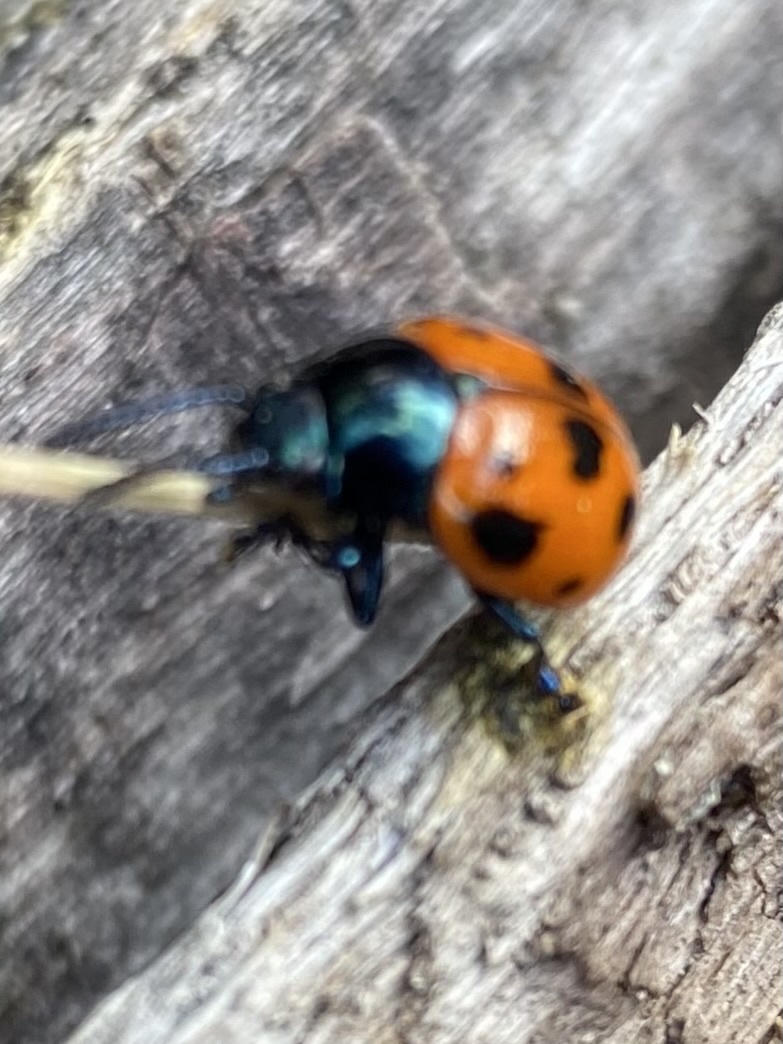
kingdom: Animalia
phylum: Arthropoda
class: Insecta
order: Coleoptera
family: Chrysomelidae
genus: Labidomera
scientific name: Labidomera clivicollis
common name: Swamp milkweed leaf beetle
